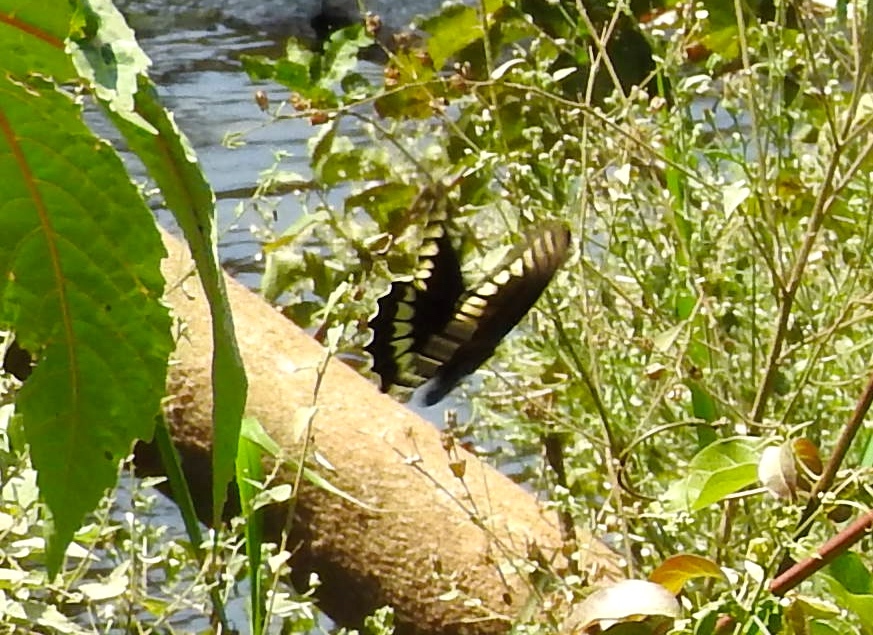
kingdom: Animalia
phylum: Arthropoda
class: Insecta
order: Lepidoptera
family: Papilionidae
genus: Battus
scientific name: Battus polydamas
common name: Polydamas swallowtail
